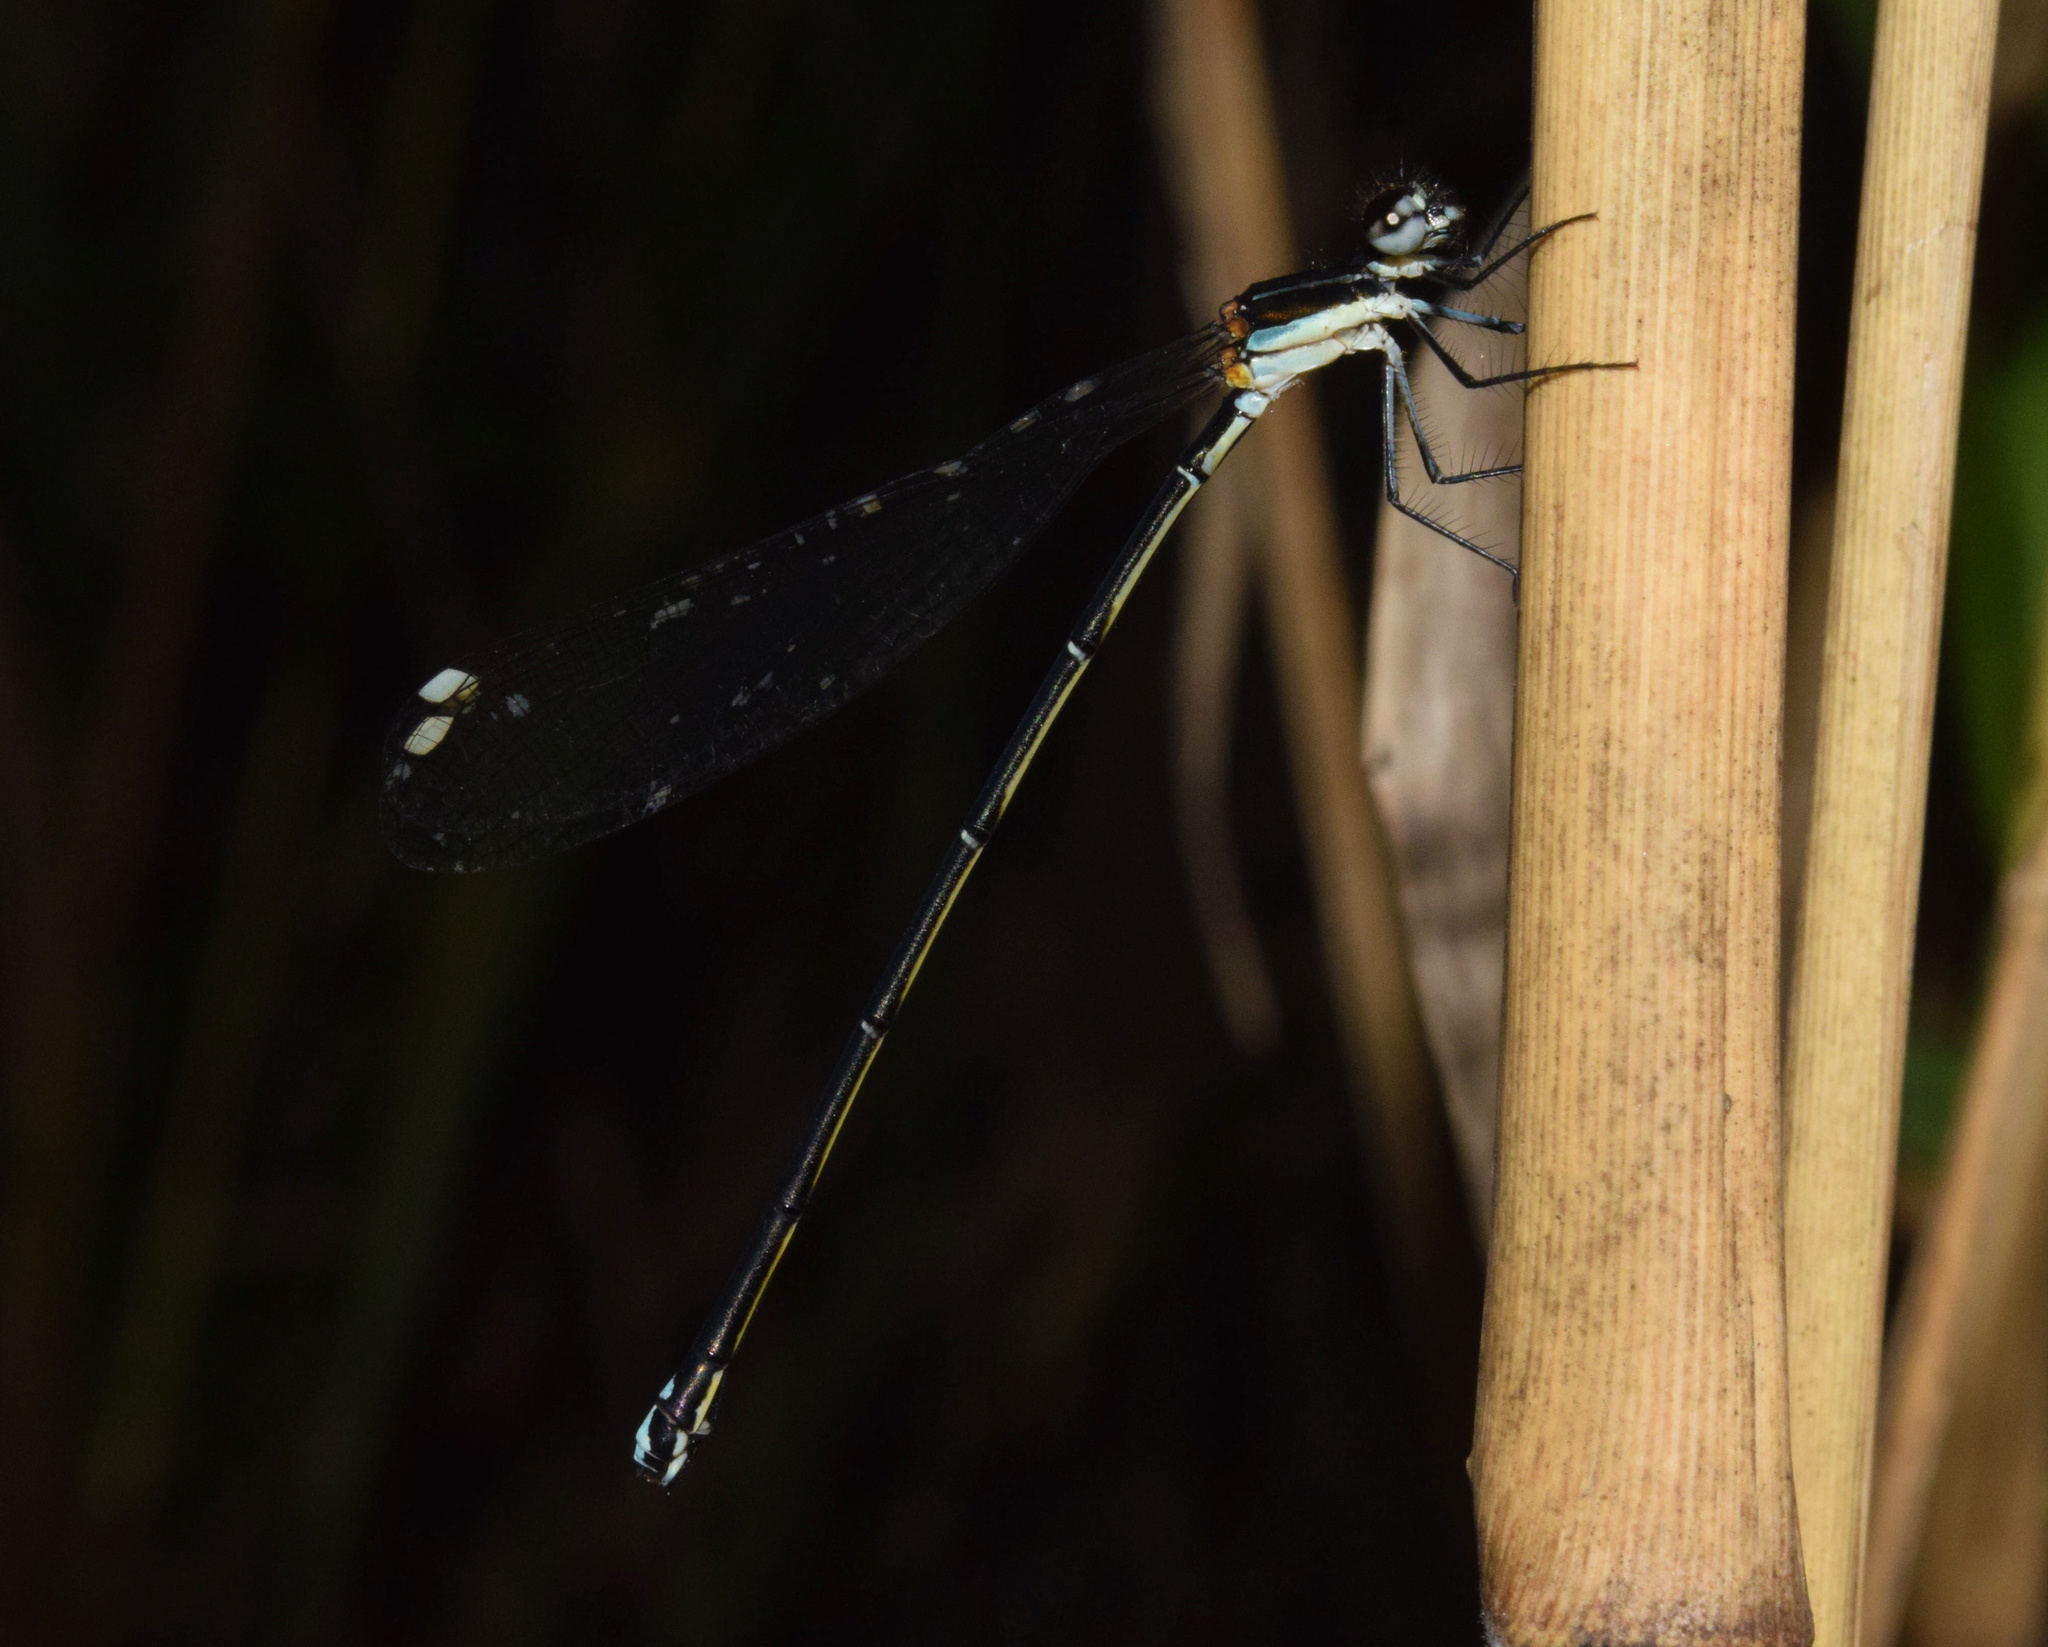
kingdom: Animalia
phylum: Arthropoda
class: Insecta
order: Odonata
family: Platycnemididae
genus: Allocnemis
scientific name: Allocnemis leucosticta
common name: Goldtail
